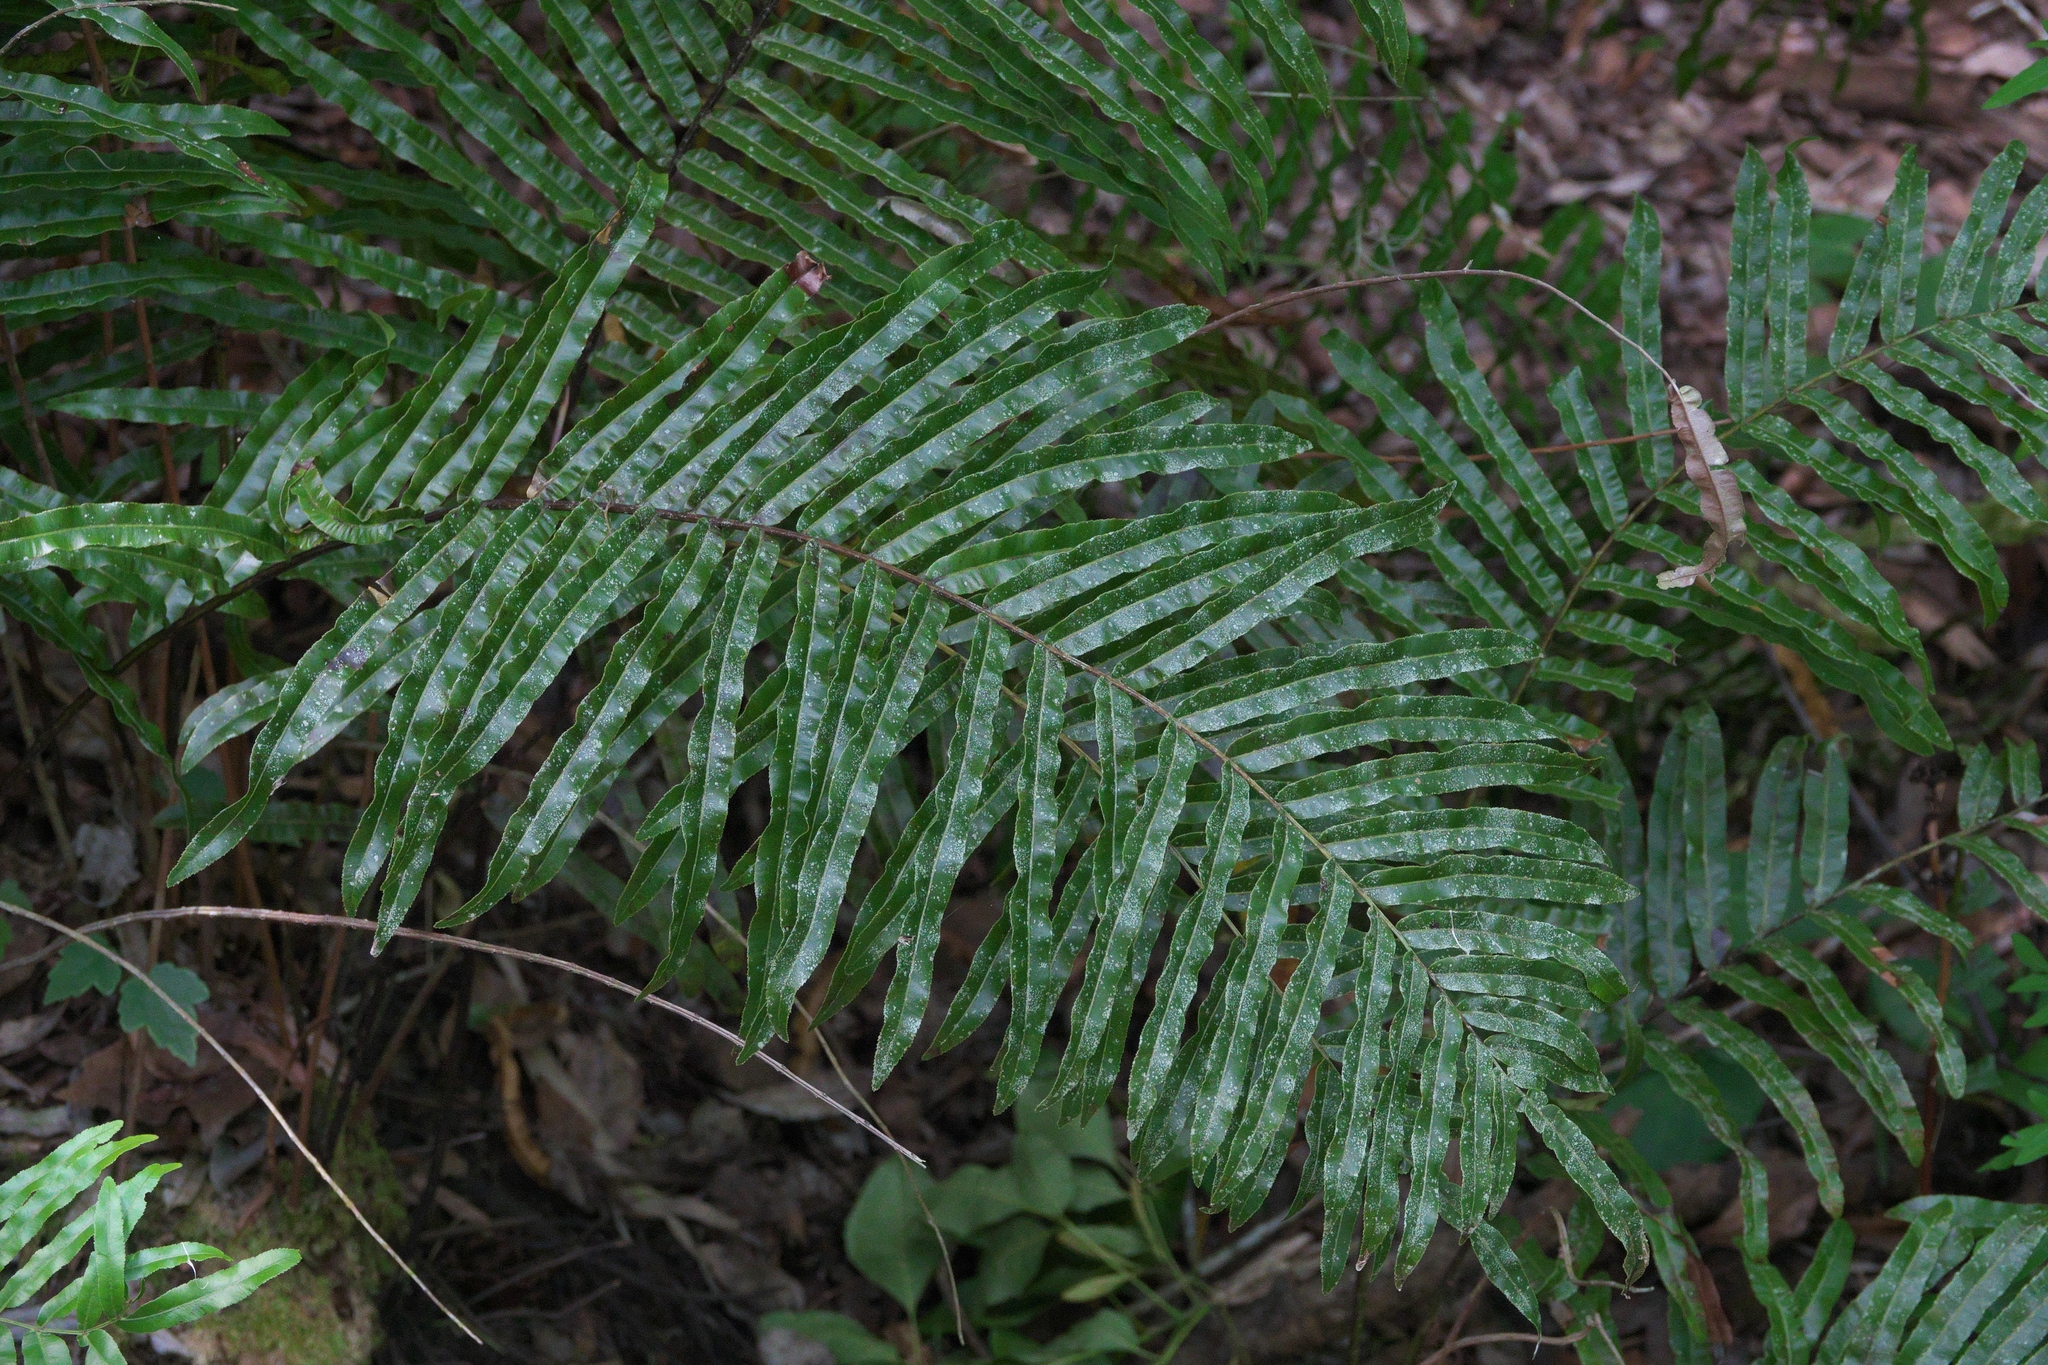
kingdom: Plantae
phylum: Tracheophyta
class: Polypodiopsida
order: Polypodiales
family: Blechnaceae
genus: Telmatoblechnum
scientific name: Telmatoblechnum serrulatum
